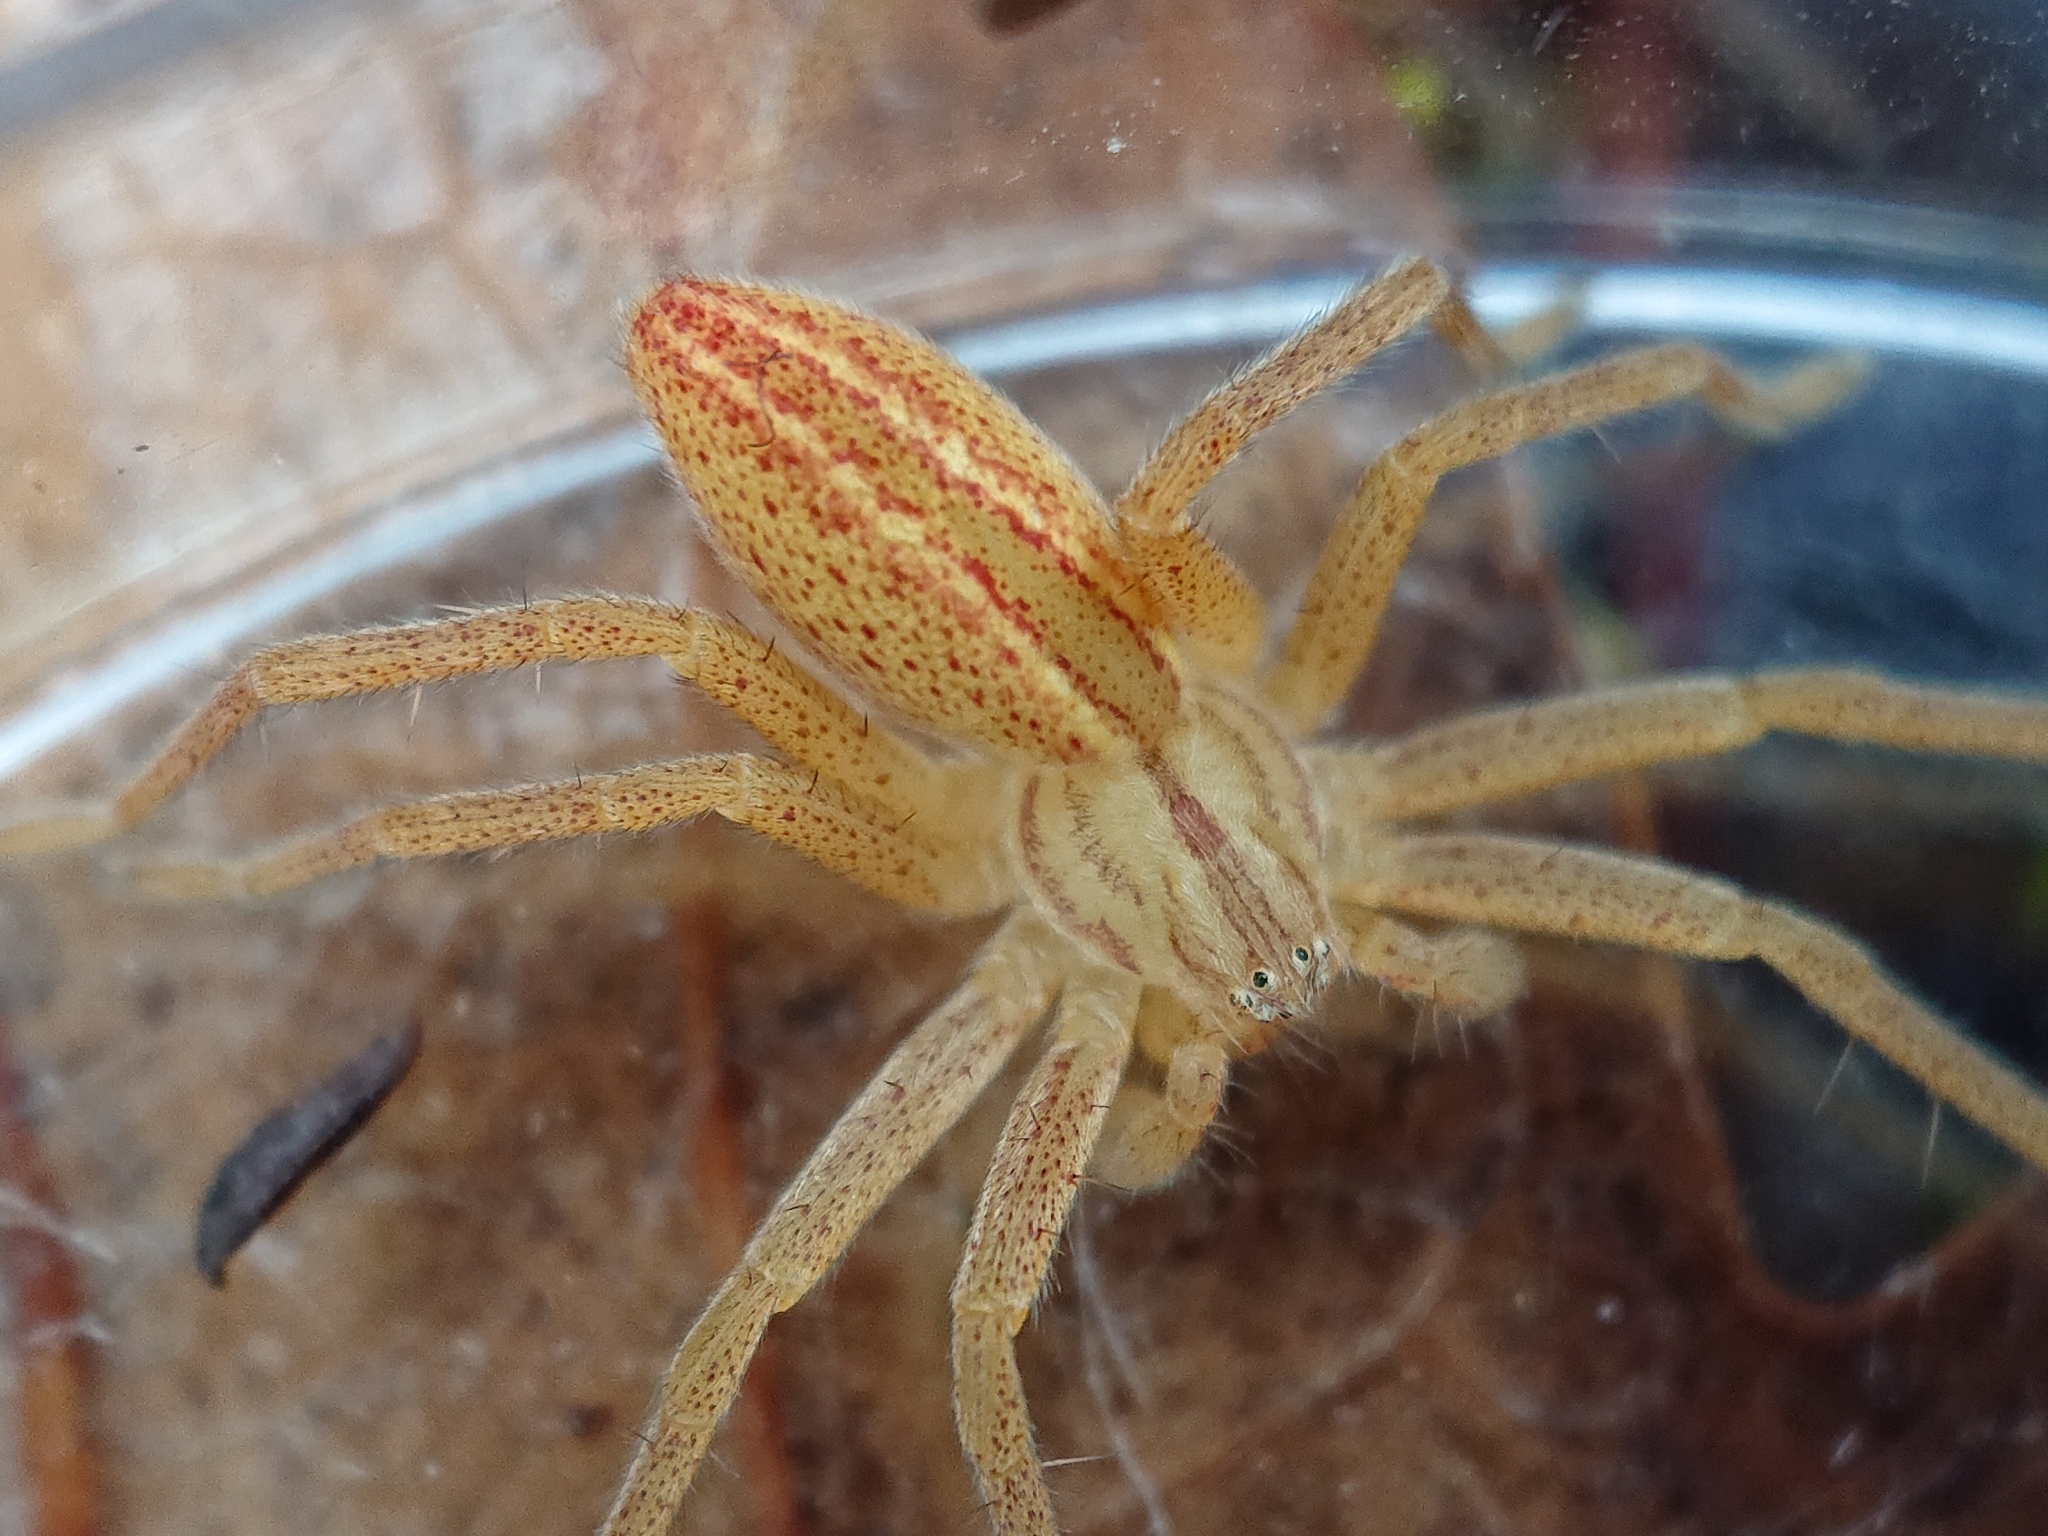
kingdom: Animalia
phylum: Arthropoda
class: Arachnida
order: Araneae
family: Sparassidae
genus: Micrommata
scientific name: Micrommata virescens
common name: Green spider
